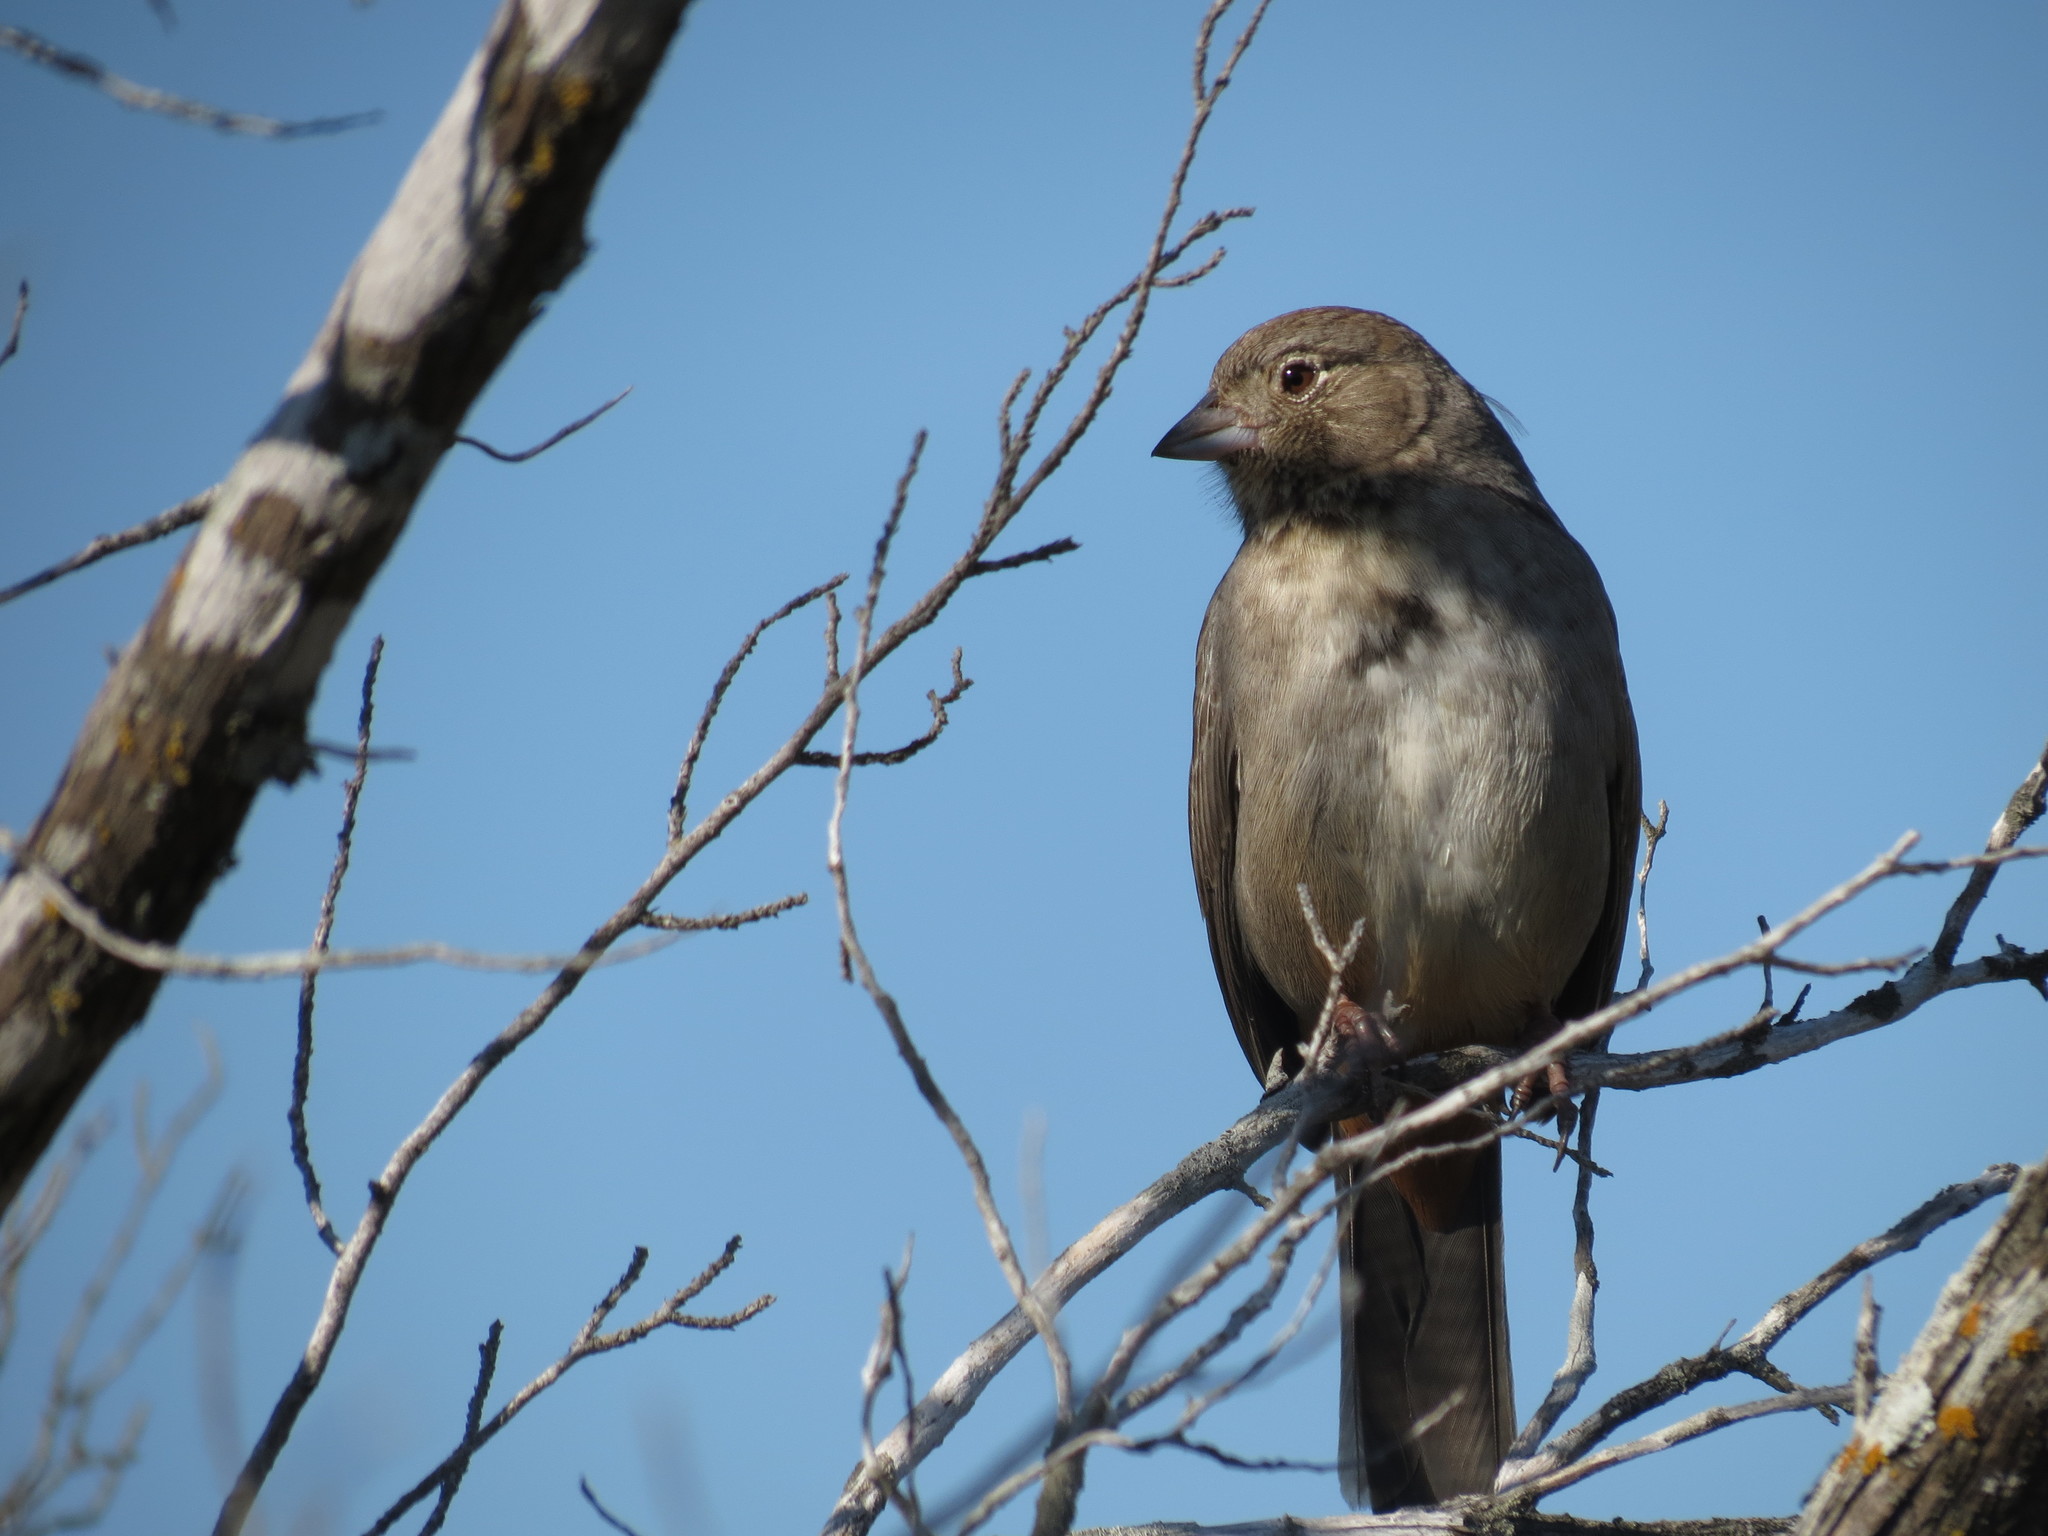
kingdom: Animalia
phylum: Chordata
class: Aves
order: Passeriformes
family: Passerellidae
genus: Melozone
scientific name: Melozone fusca
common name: Canyon towhee
